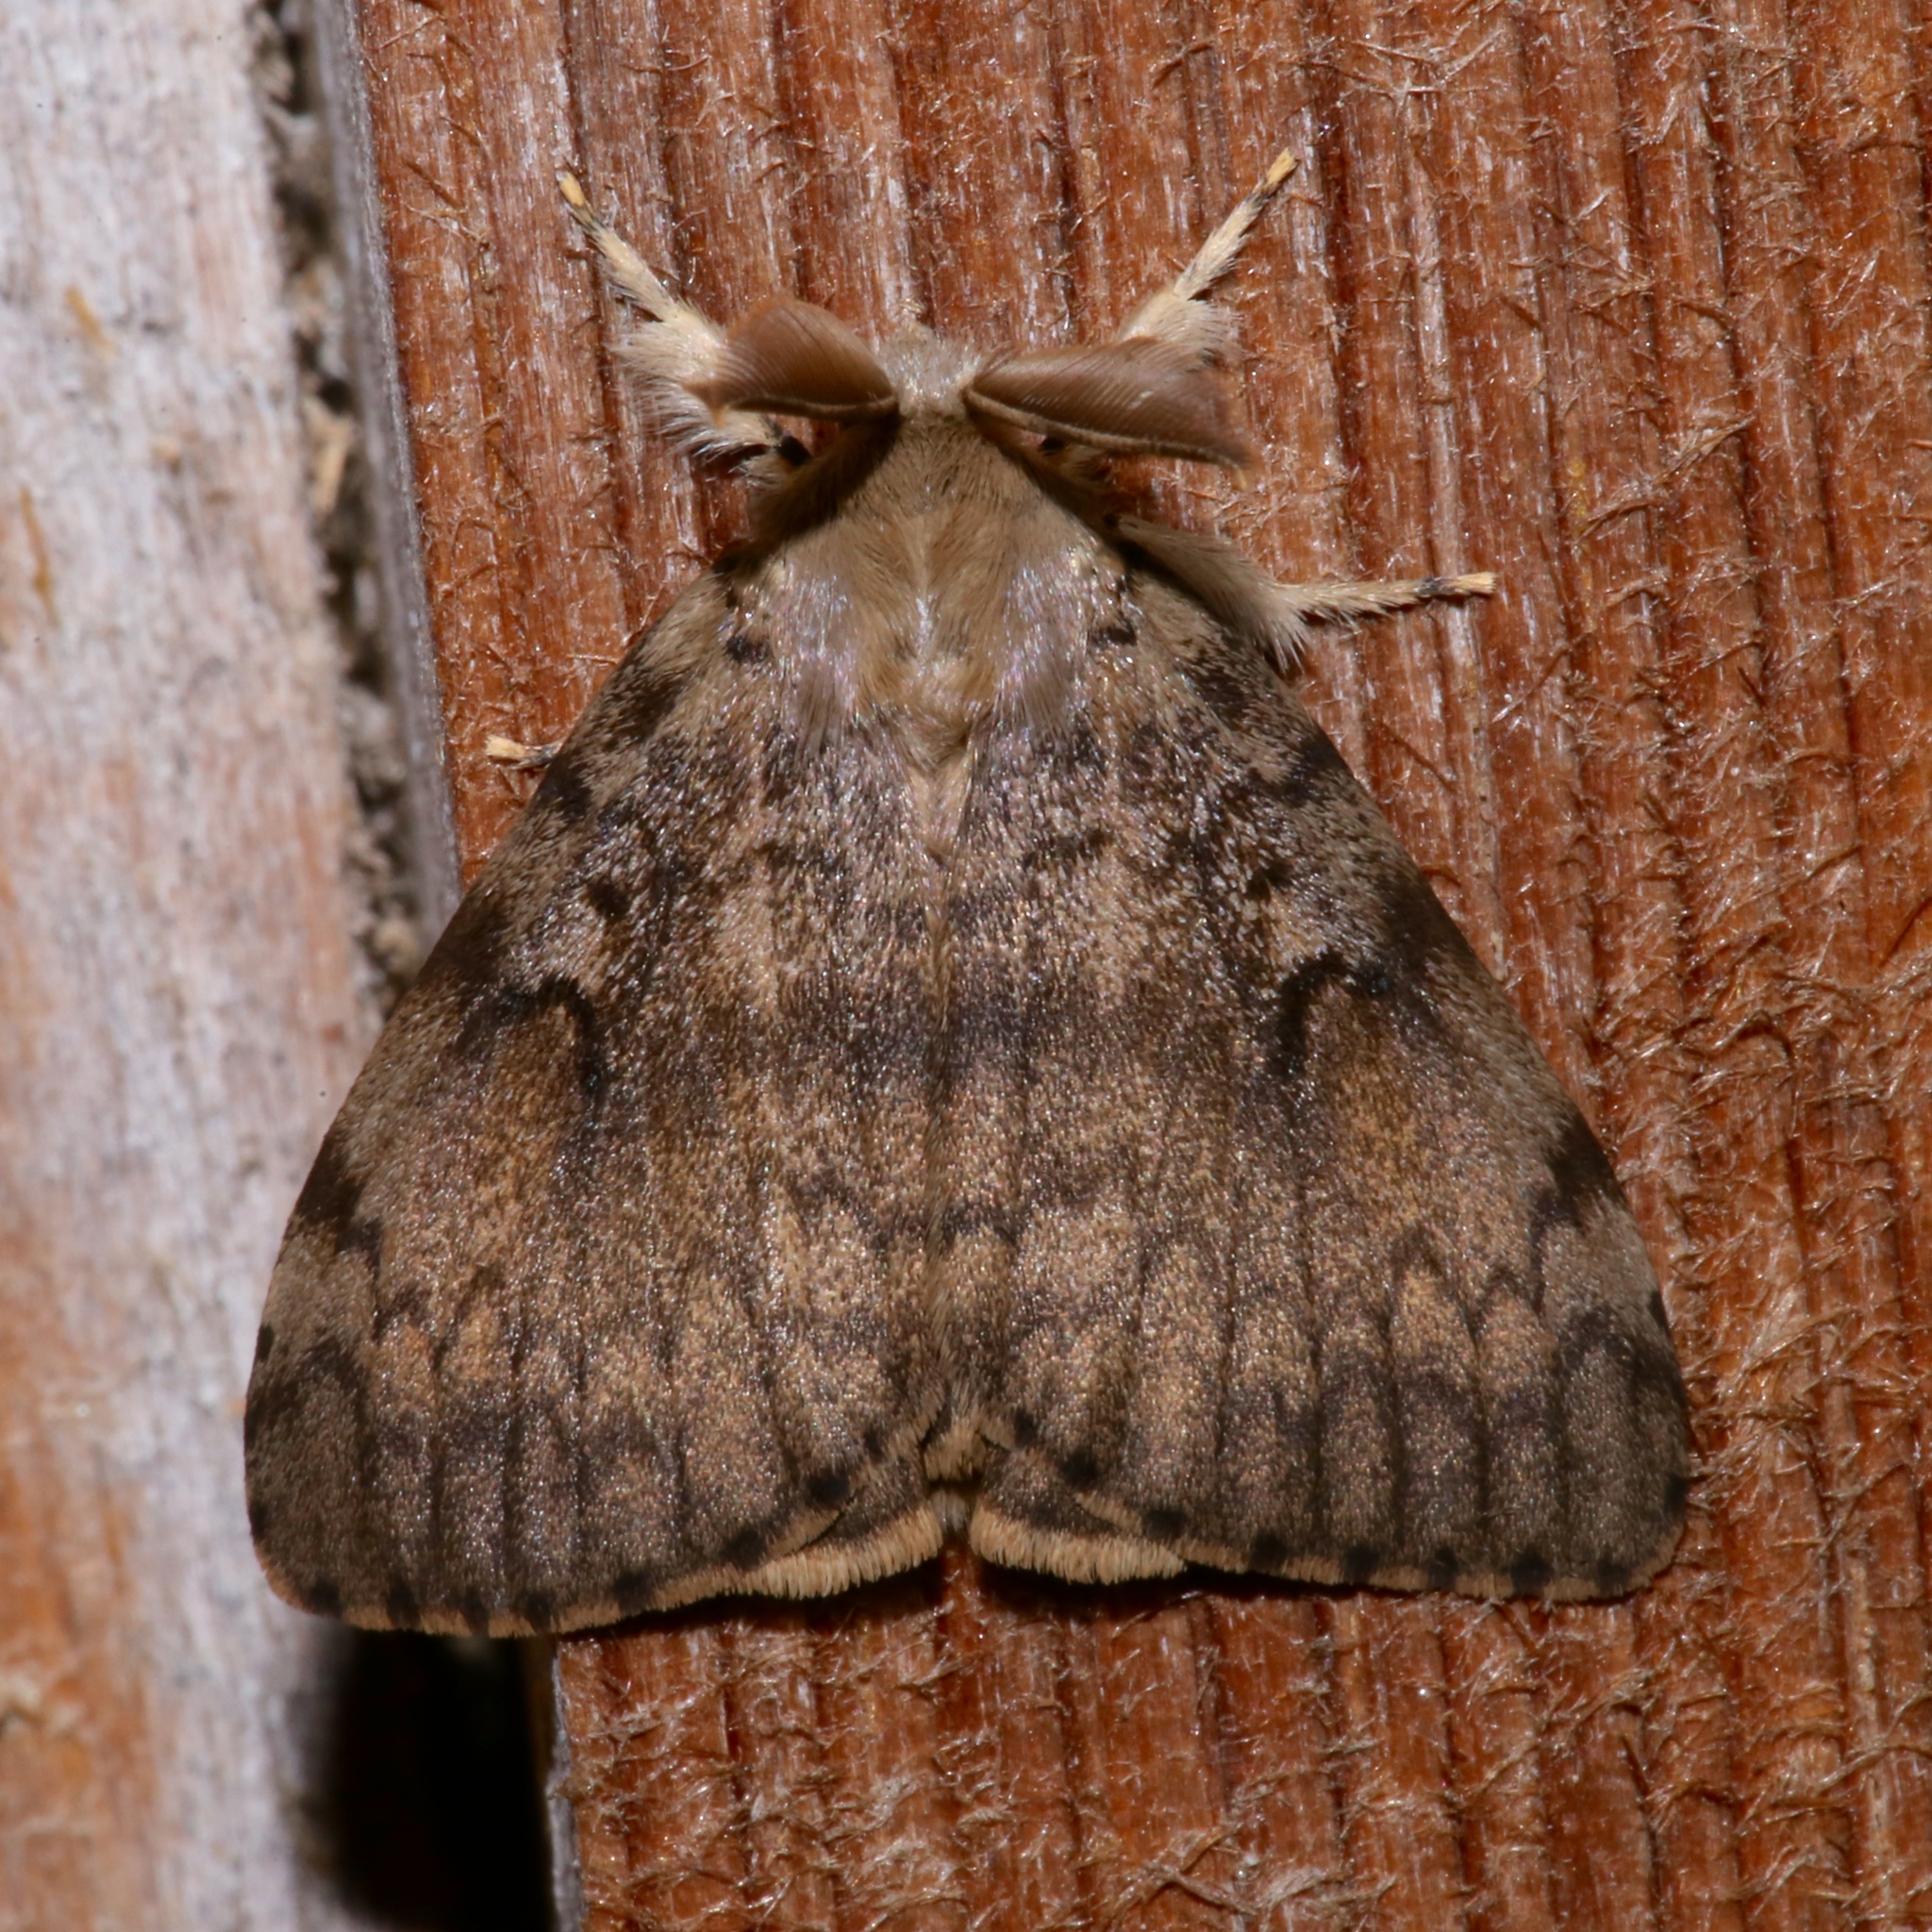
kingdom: Animalia
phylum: Arthropoda
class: Insecta
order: Lepidoptera
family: Erebidae
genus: Lymantria
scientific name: Lymantria dispar
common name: Gypsy moth
